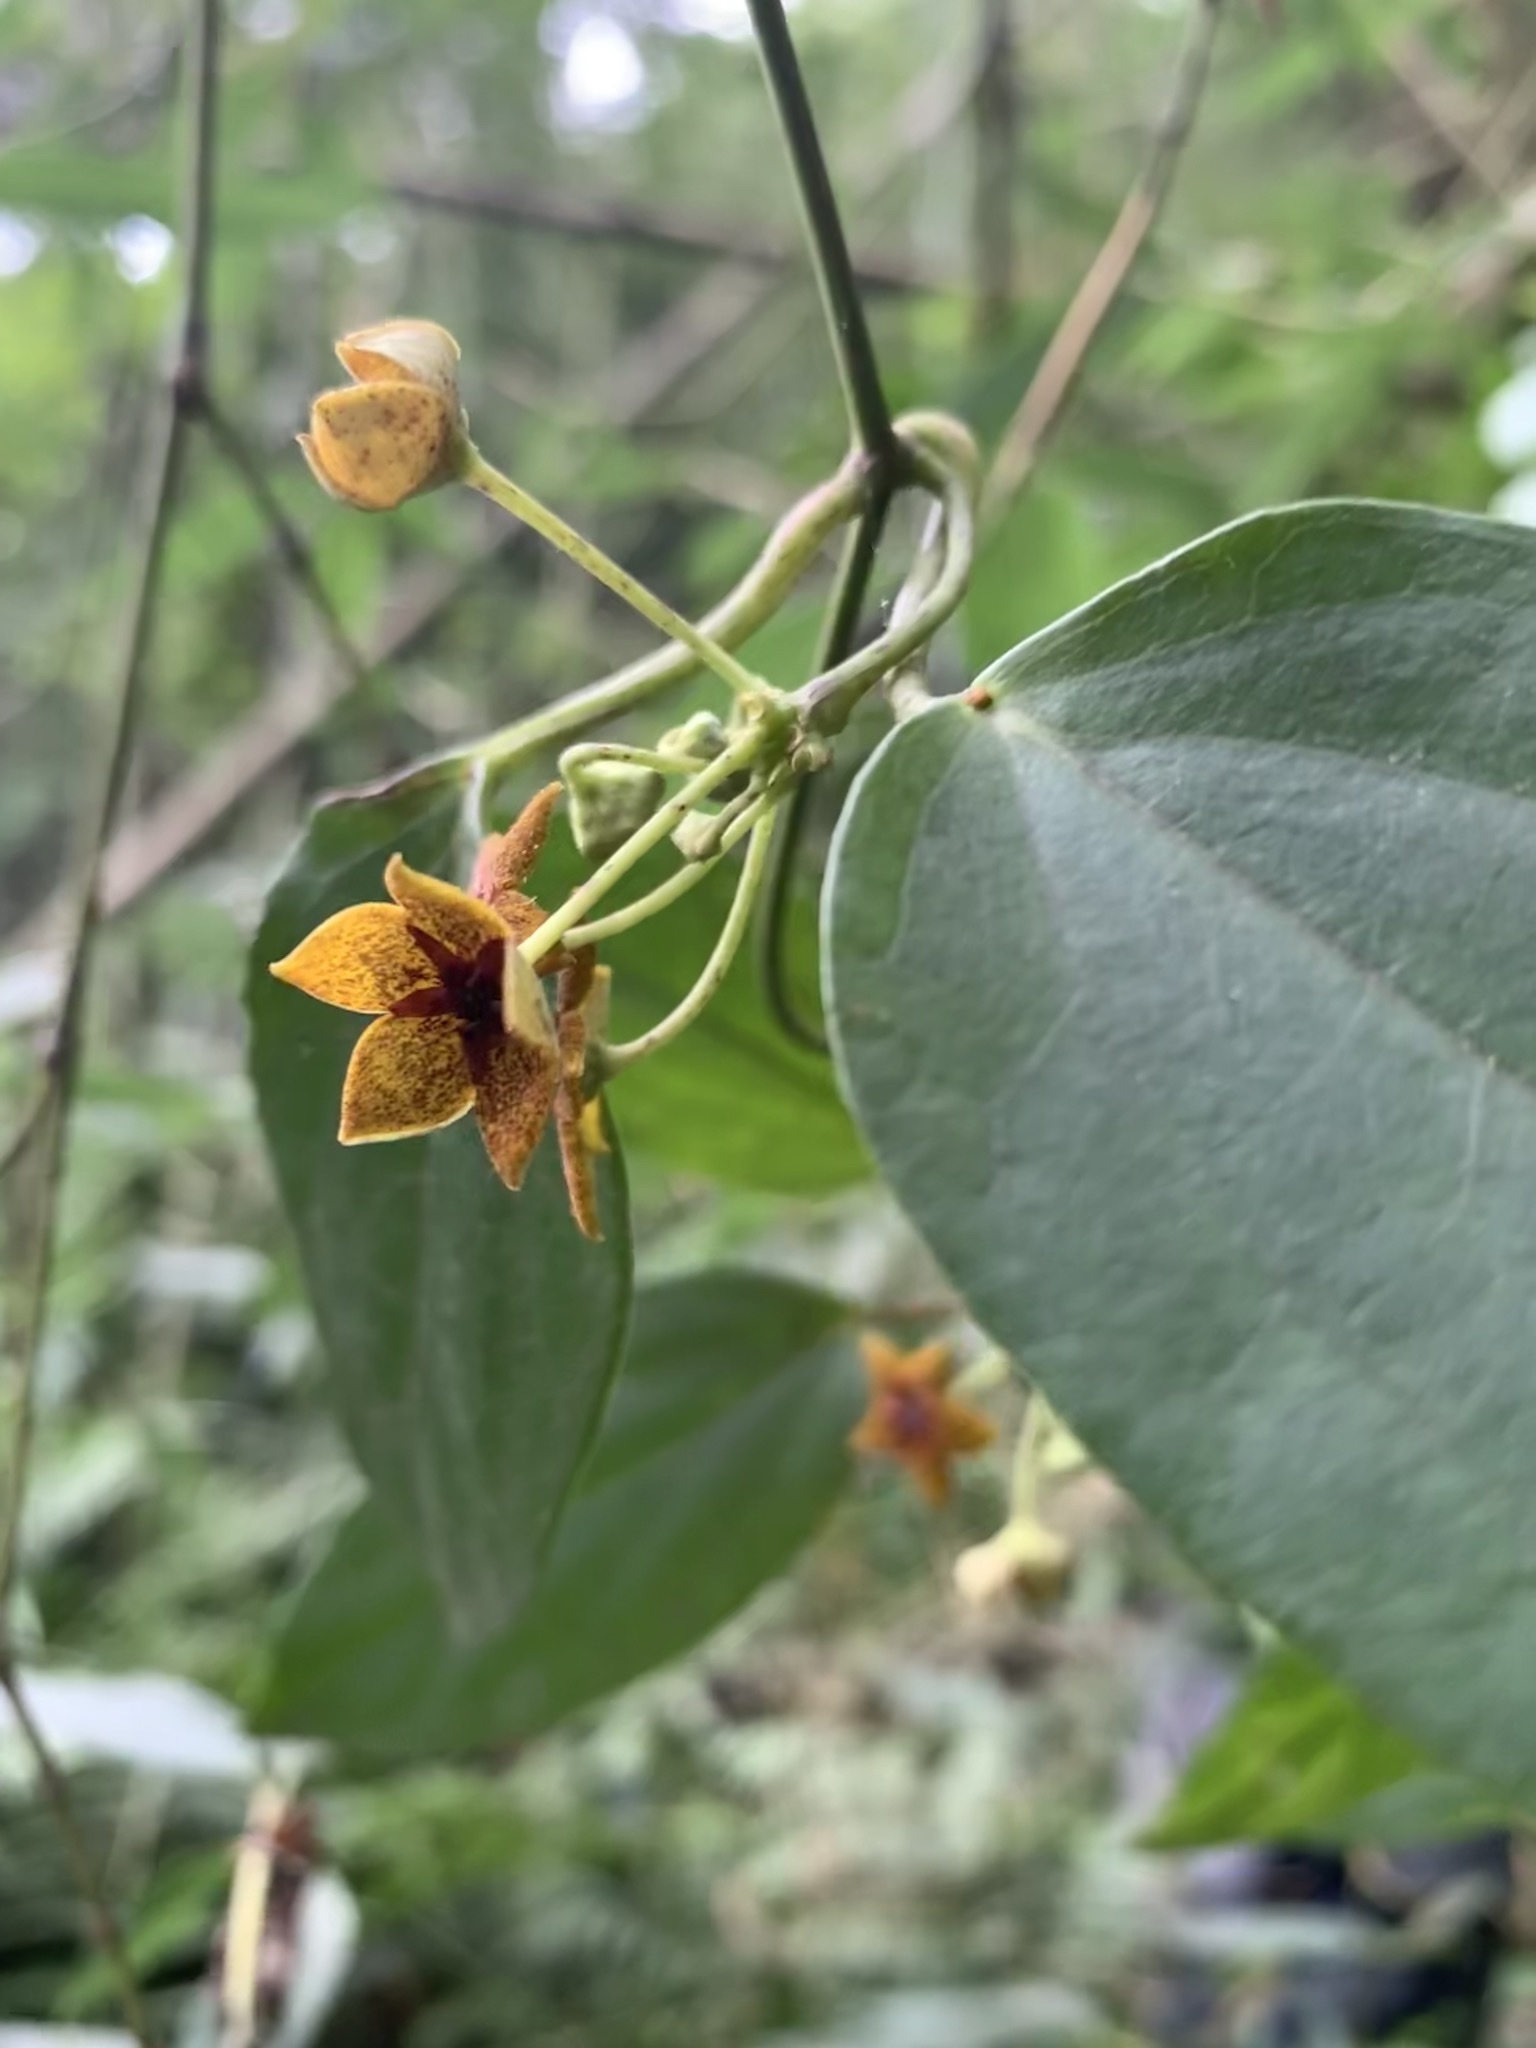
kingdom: Plantae
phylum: Tracheophyta
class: Magnoliopsida
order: Gentianales
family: Apocynaceae
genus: Heterostemma
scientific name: Heterostemma brownii
